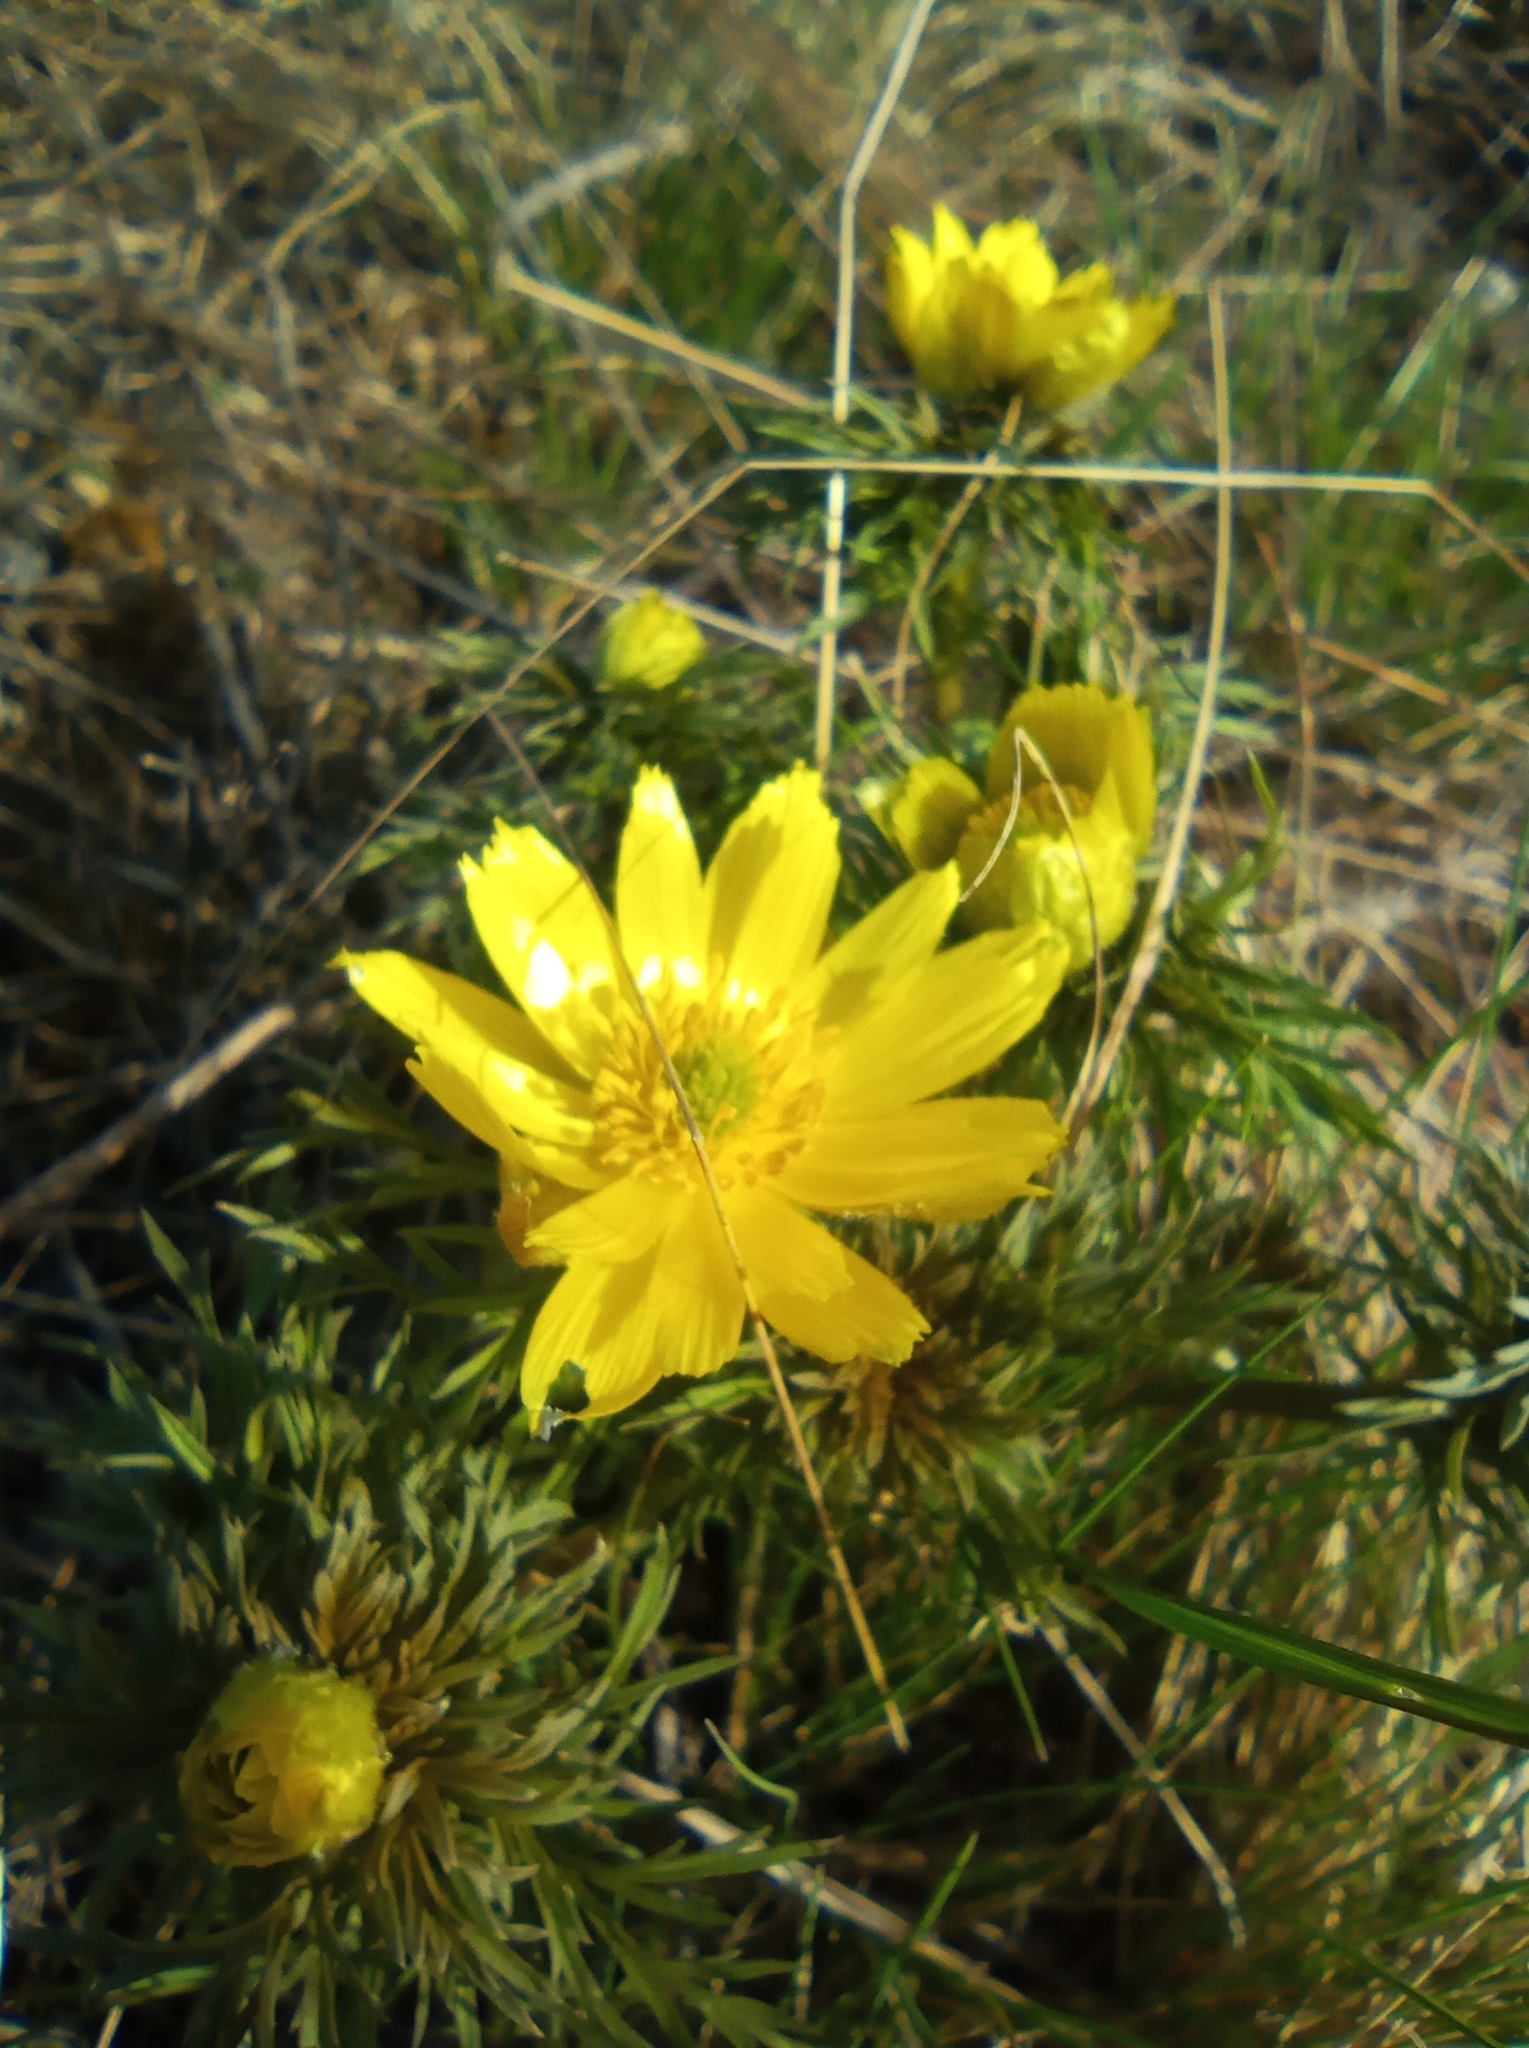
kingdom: Plantae
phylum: Tracheophyta
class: Magnoliopsida
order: Ranunculales
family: Ranunculaceae
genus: Adonis
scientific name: Adonis volgensis
